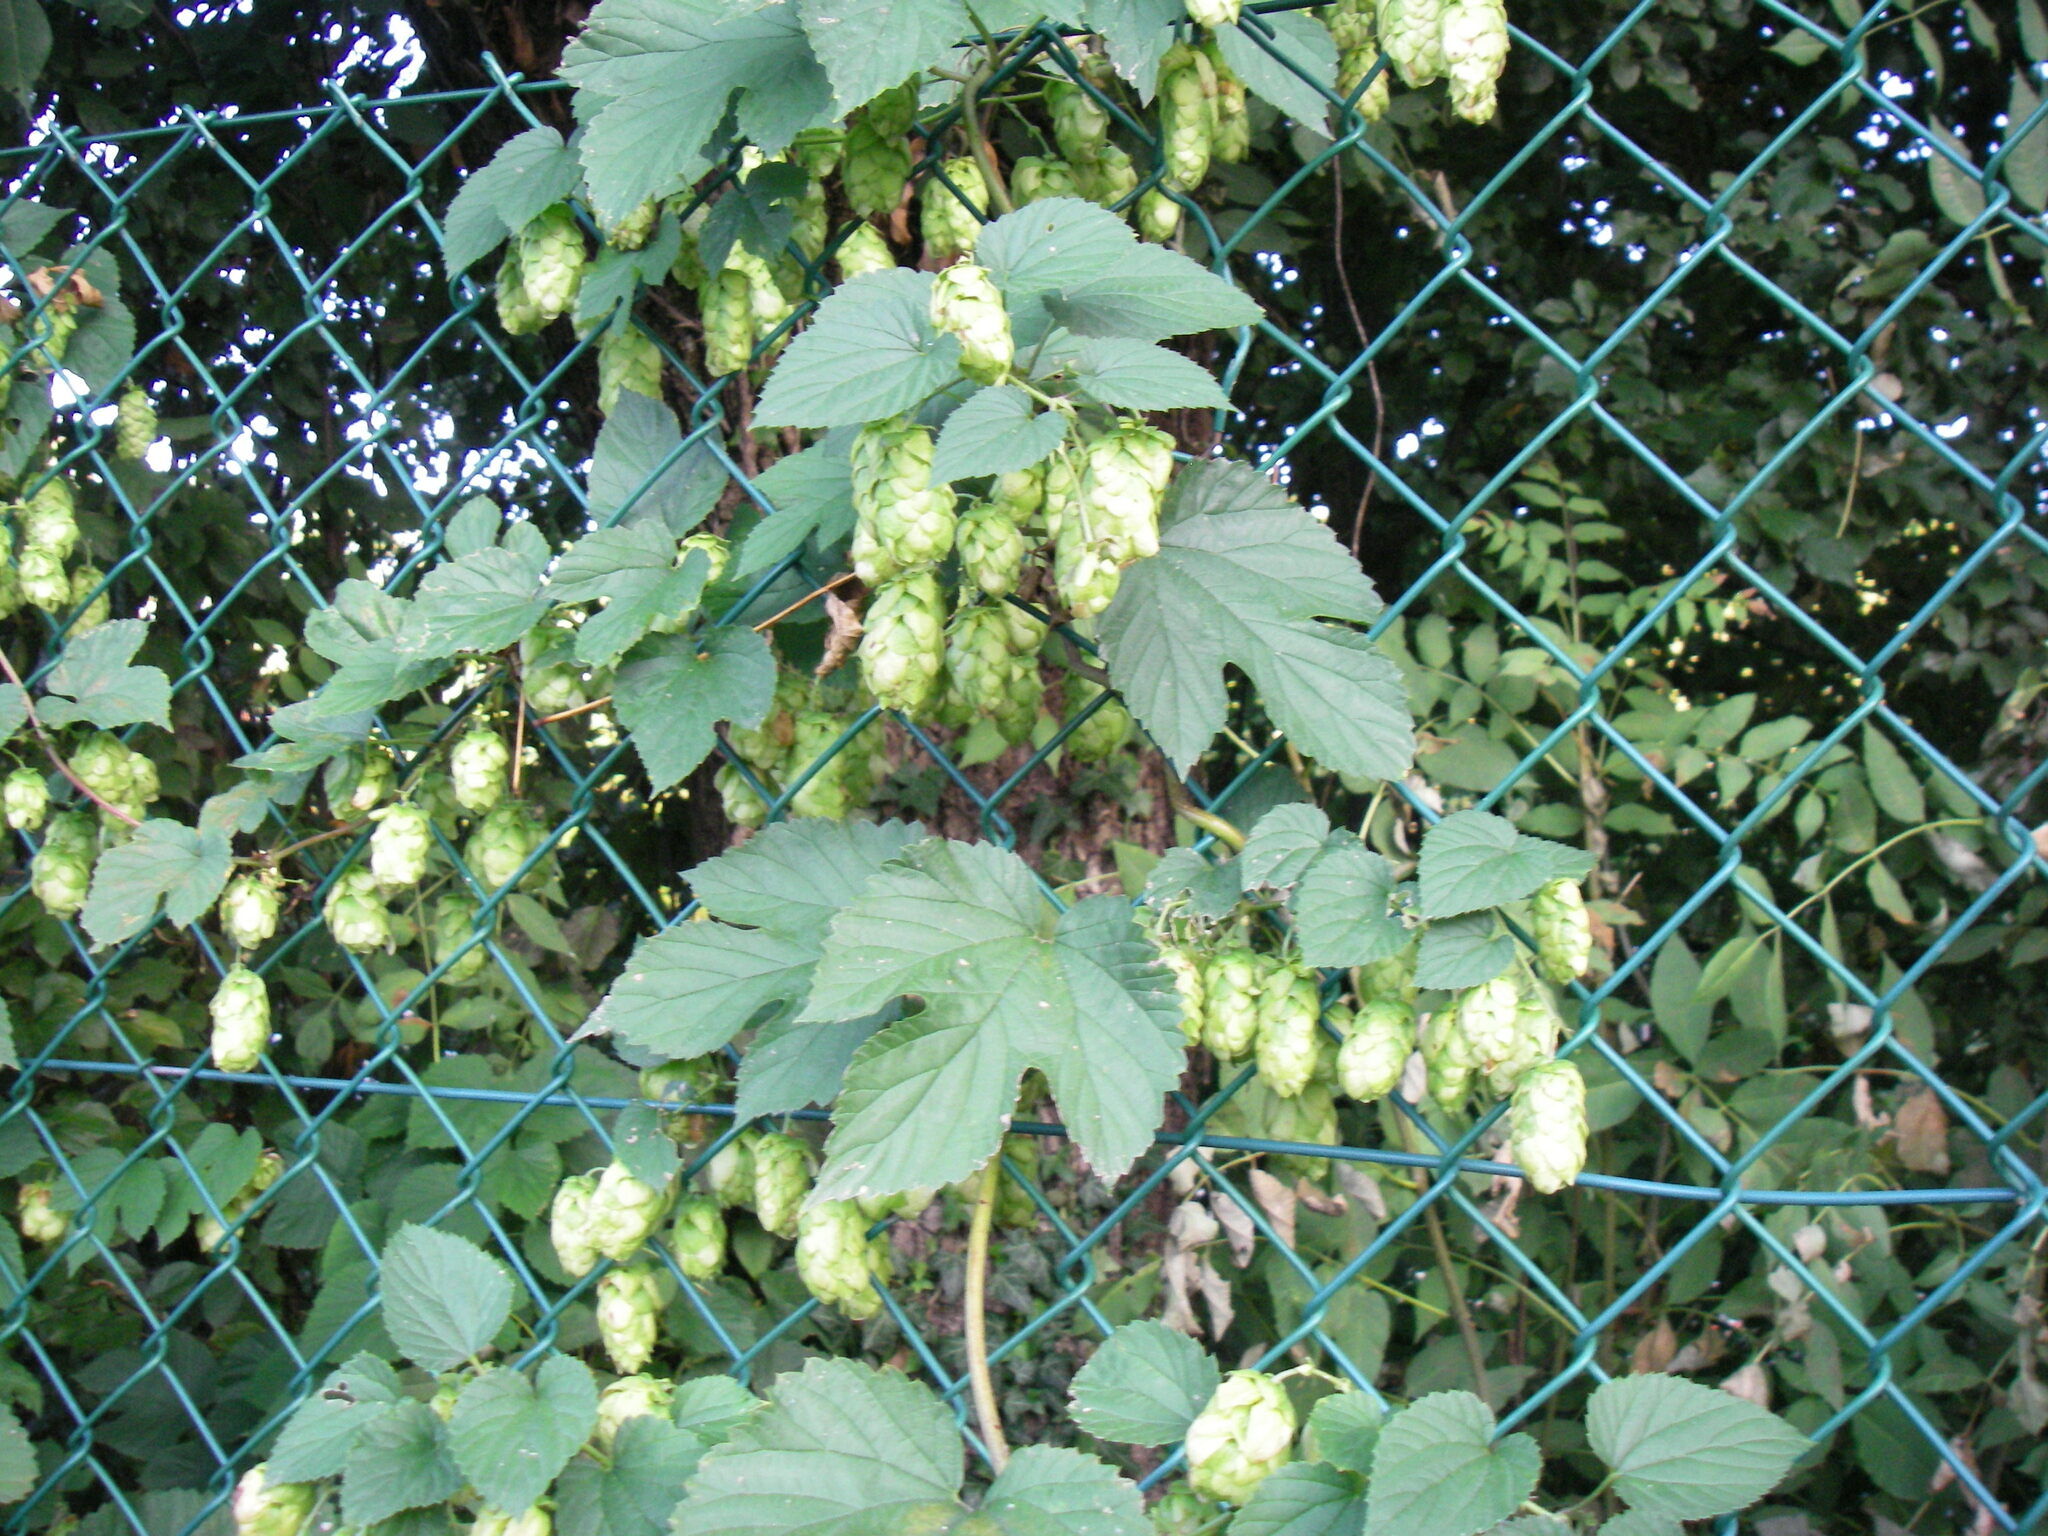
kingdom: Plantae
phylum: Tracheophyta
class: Magnoliopsida
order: Rosales
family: Cannabaceae
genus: Humulus
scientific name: Humulus lupulus
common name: Hop
